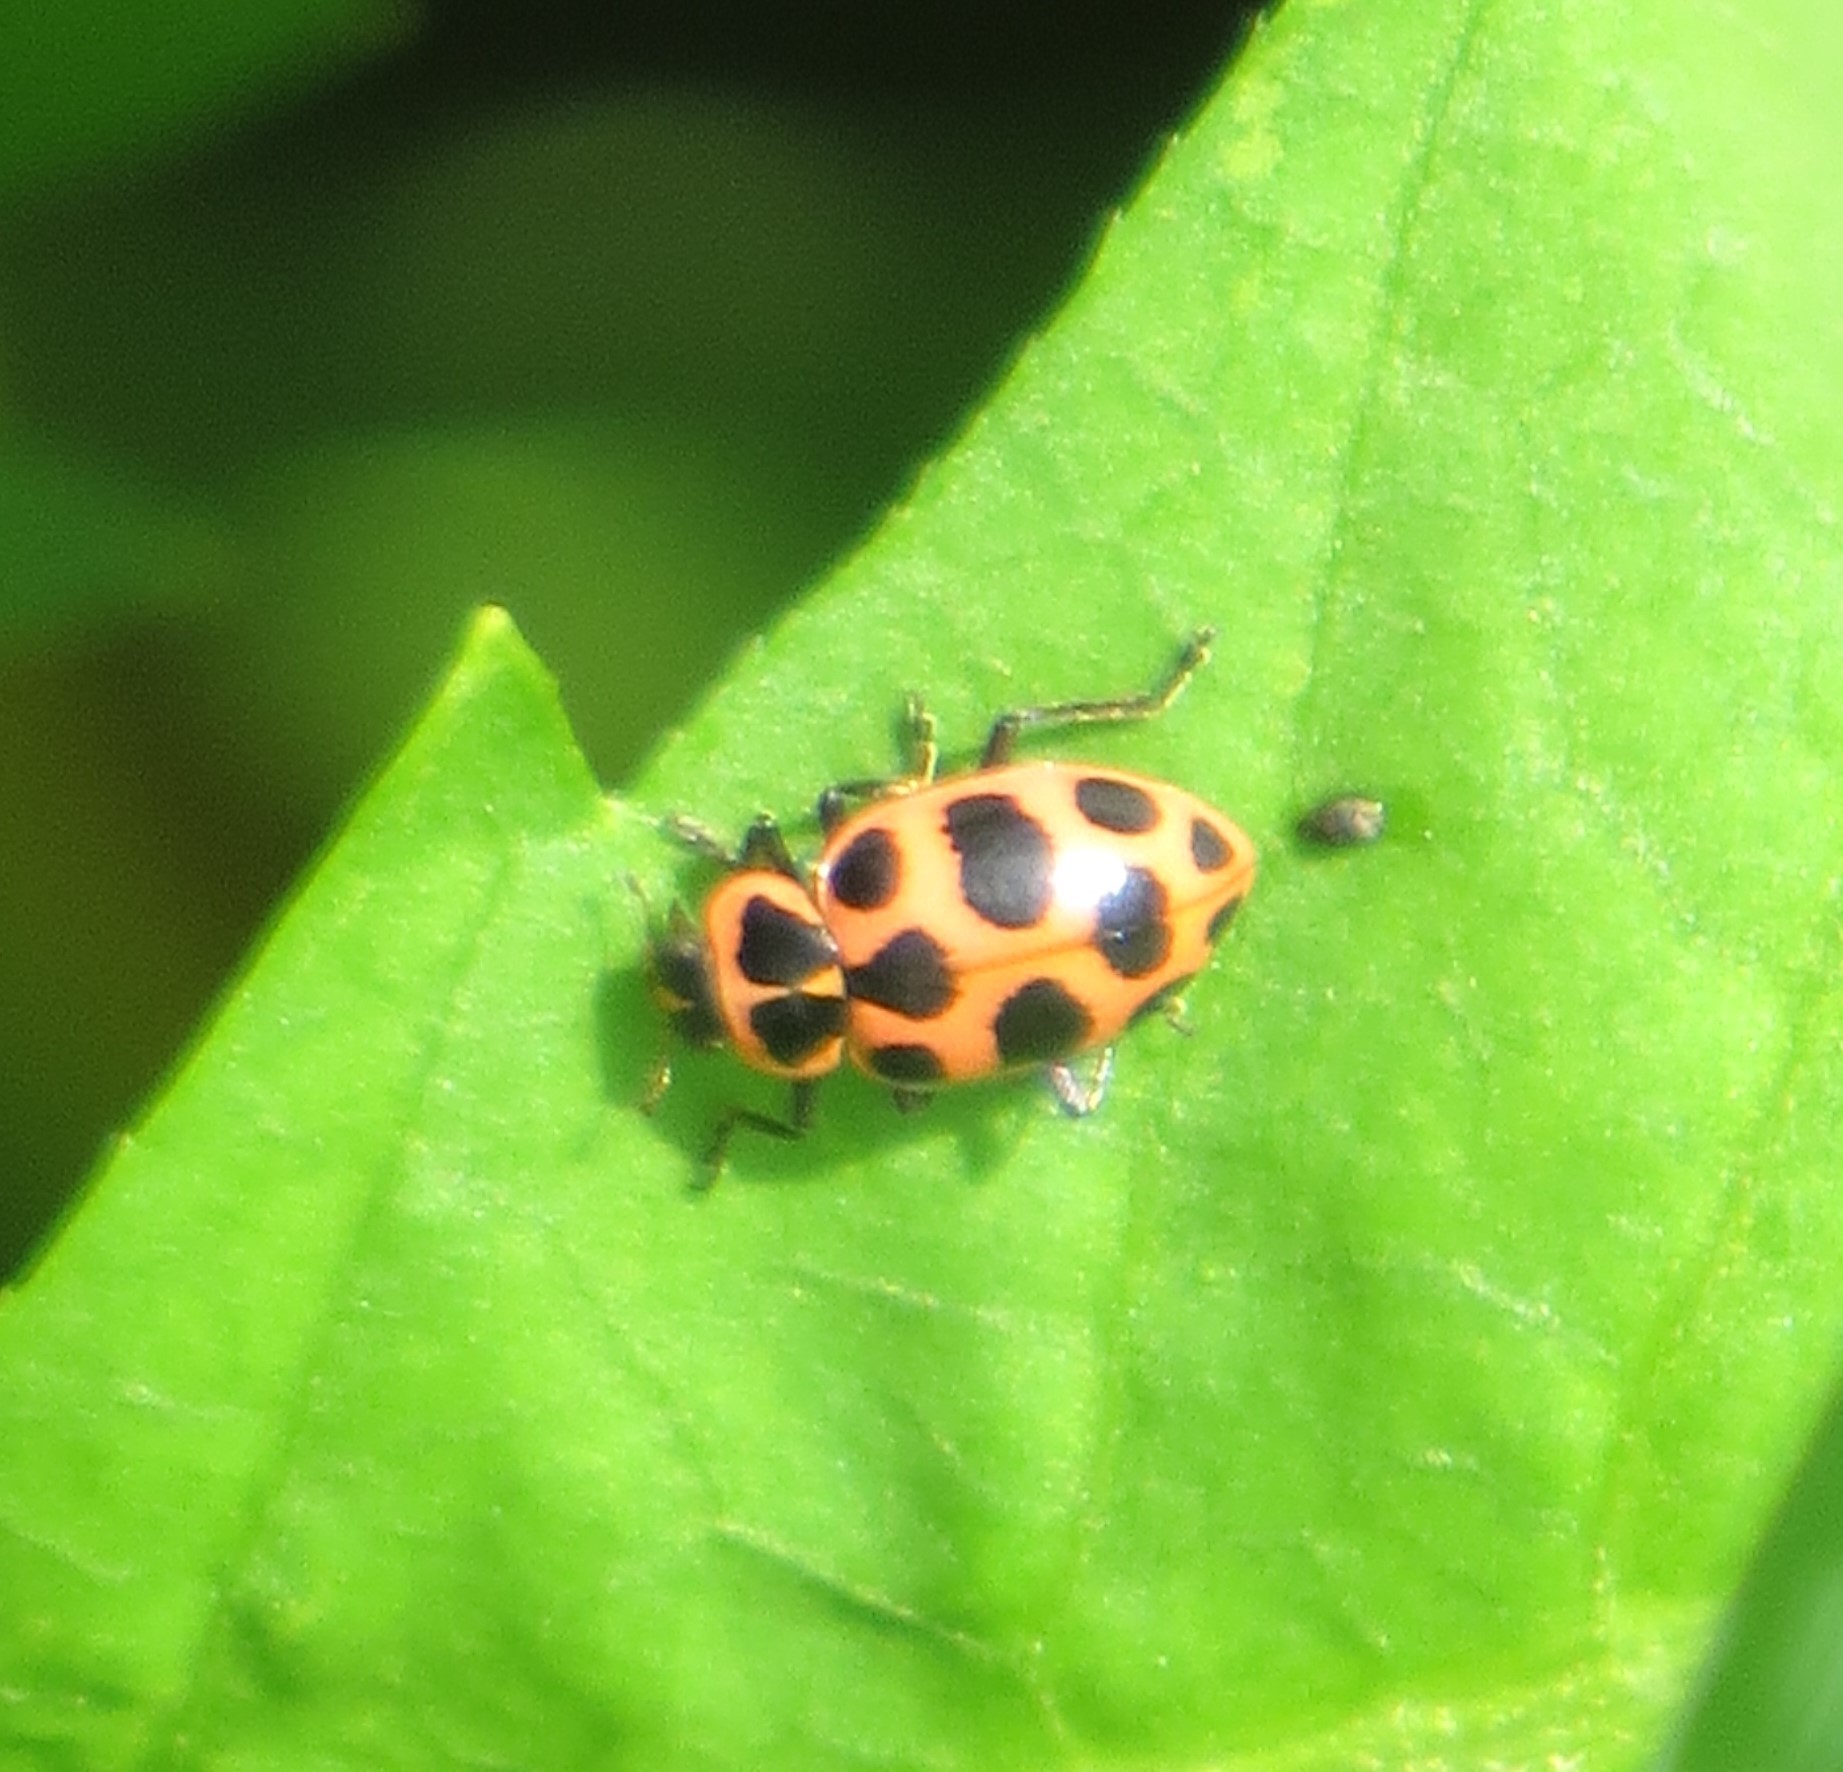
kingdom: Animalia
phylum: Arthropoda
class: Insecta
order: Coleoptera
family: Coccinellidae
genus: Coleomegilla
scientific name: Coleomegilla maculata
